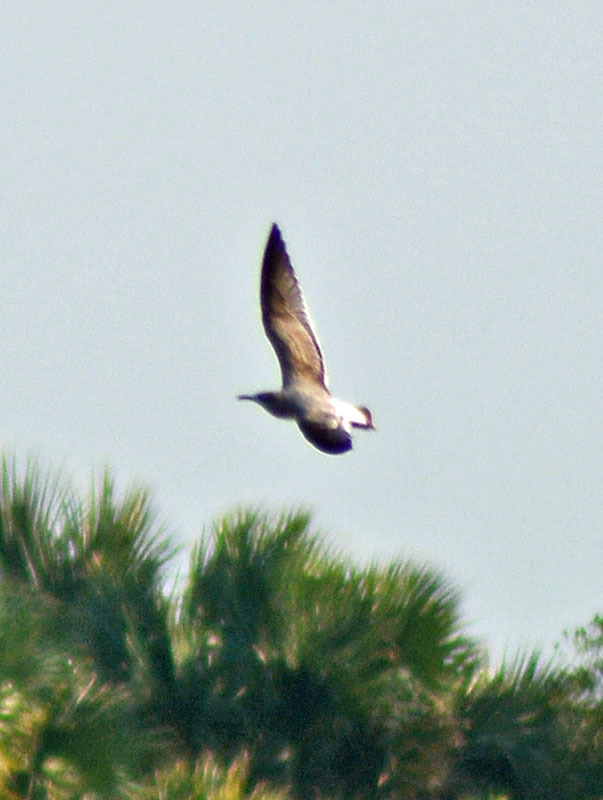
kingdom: Animalia
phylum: Chordata
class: Aves
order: Charadriiformes
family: Laridae
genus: Leucophaeus
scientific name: Leucophaeus atricilla
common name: Laughing gull
